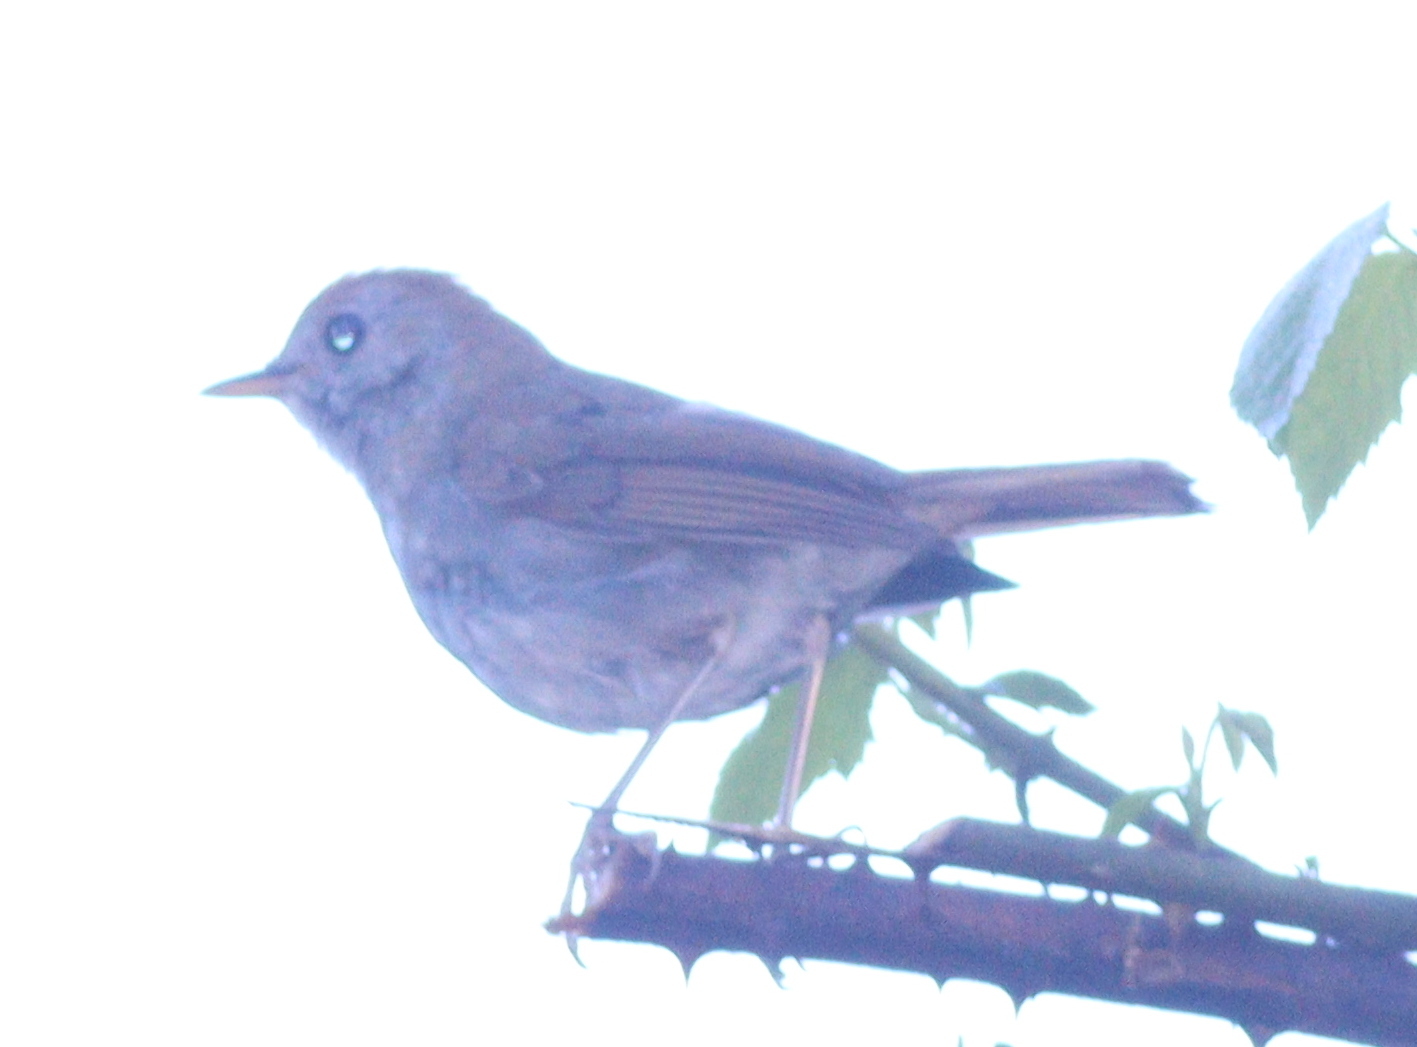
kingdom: Animalia
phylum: Chordata
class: Aves
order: Passeriformes
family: Turdidae
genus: Catharus
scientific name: Catharus frantzii
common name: Ruddy-capped nightingale-thrush
